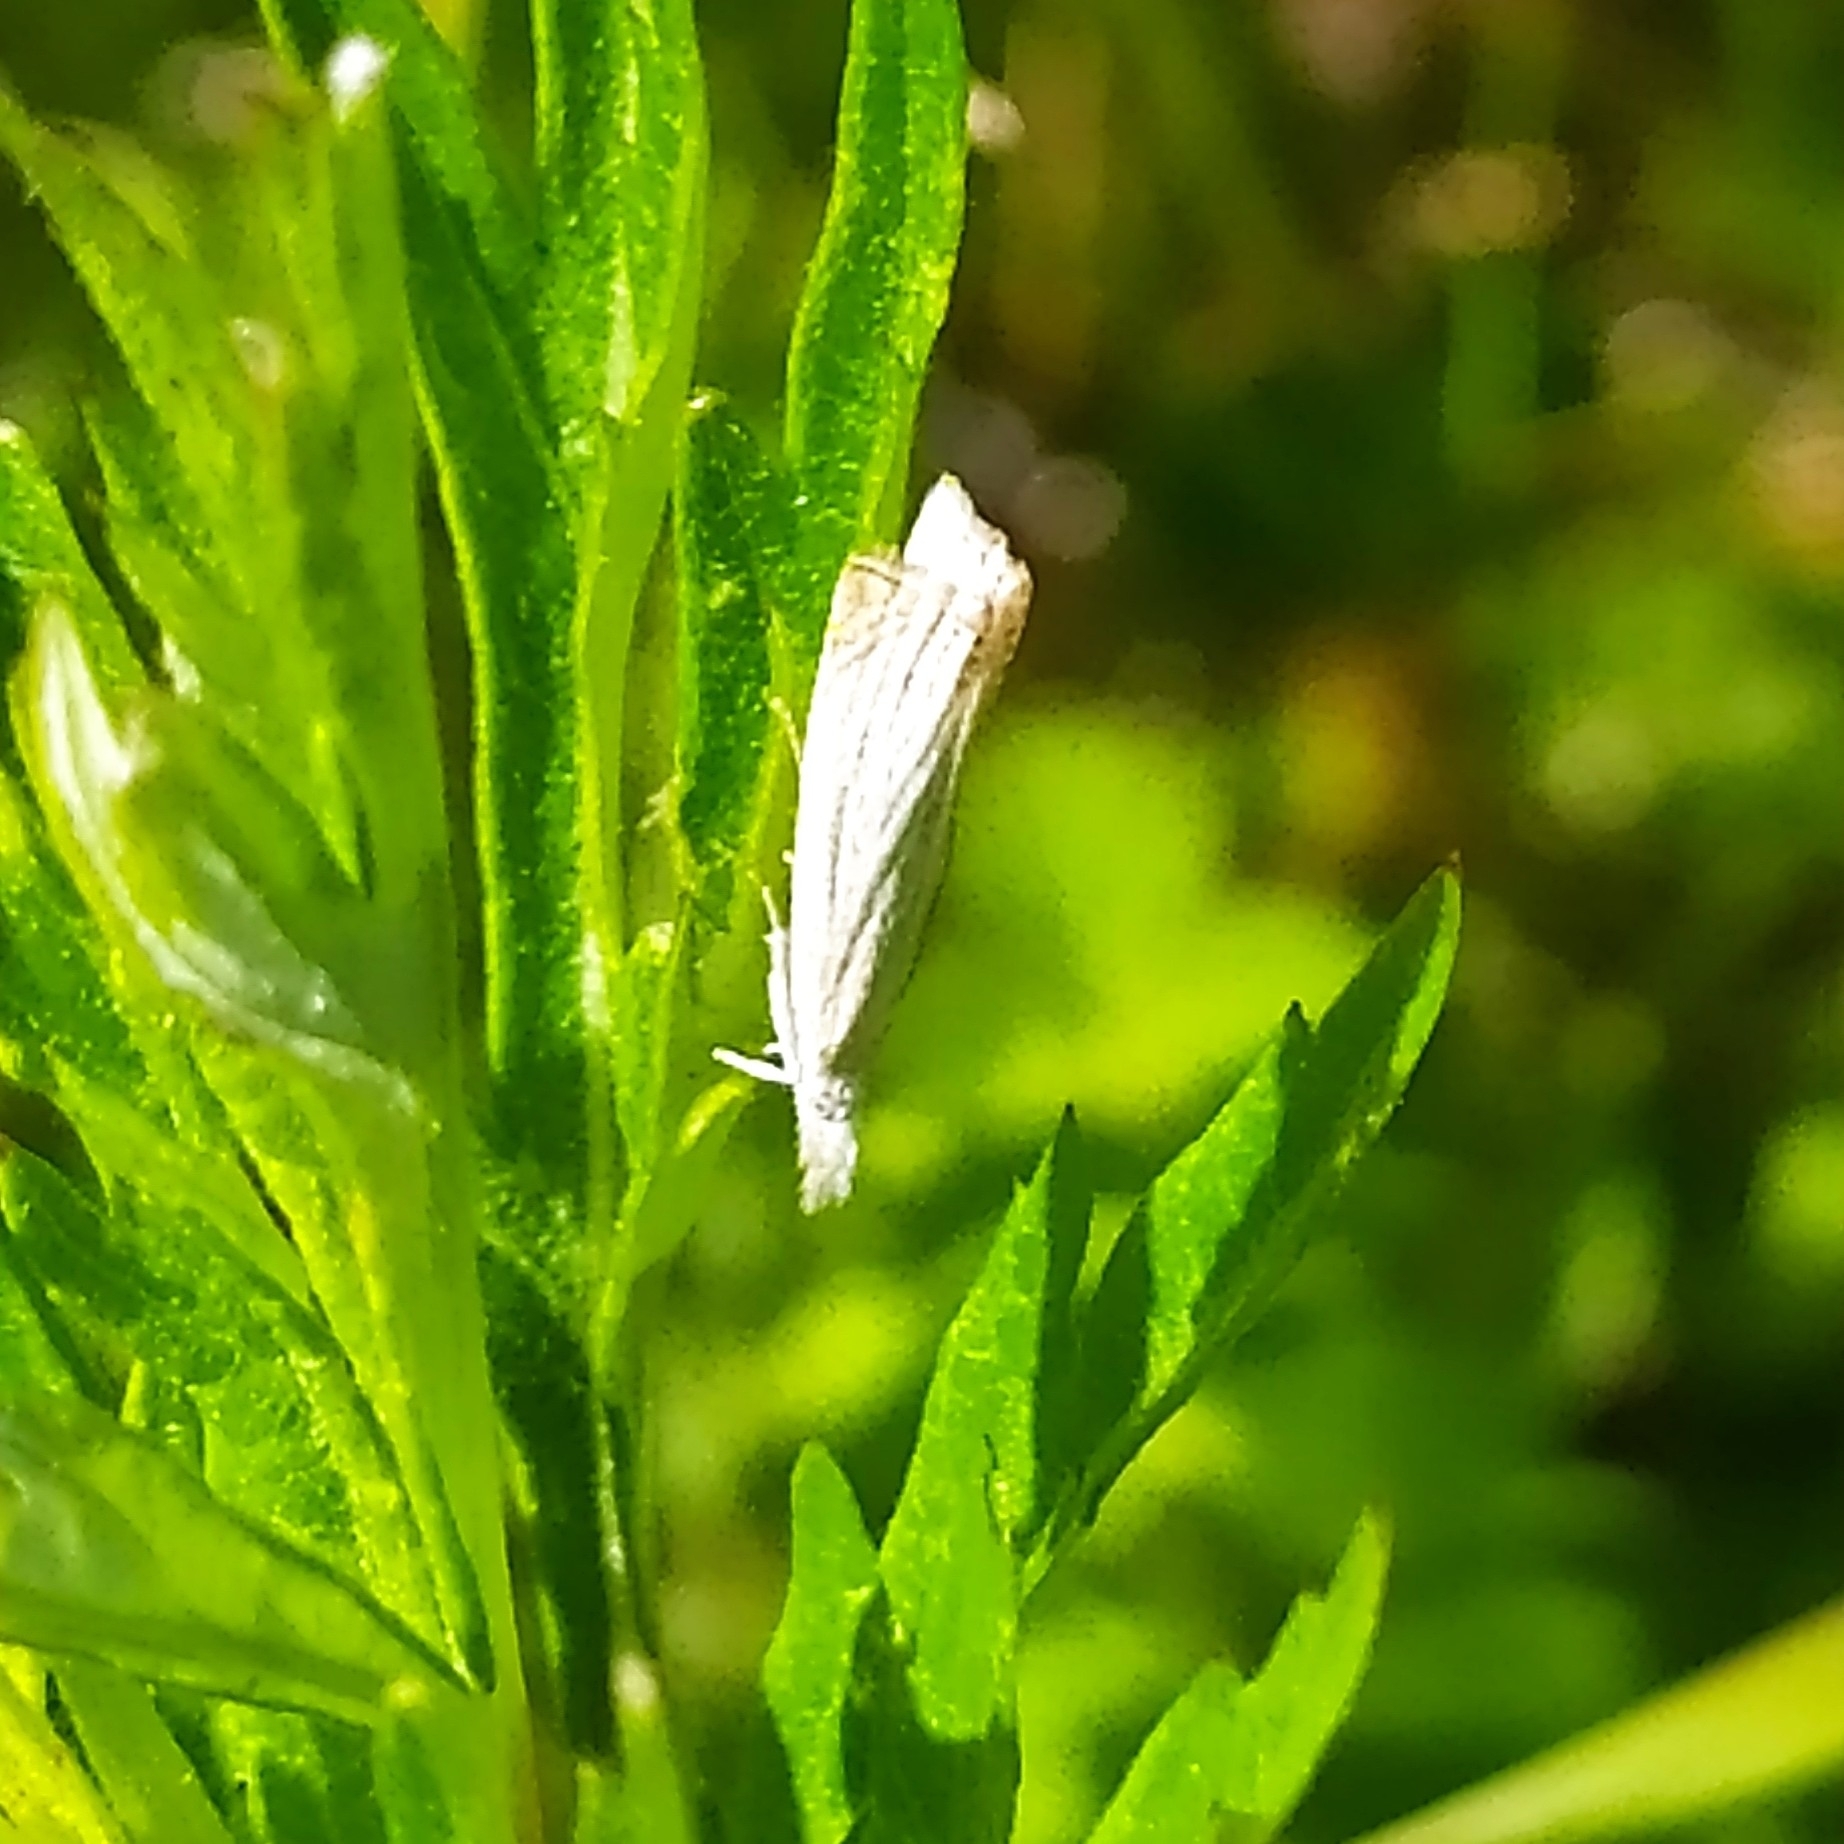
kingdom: Animalia
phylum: Arthropoda
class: Insecta
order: Lepidoptera
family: Crambidae
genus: Chrysoteuchia
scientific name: Chrysoteuchia culmella
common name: Garden grass-veneer
